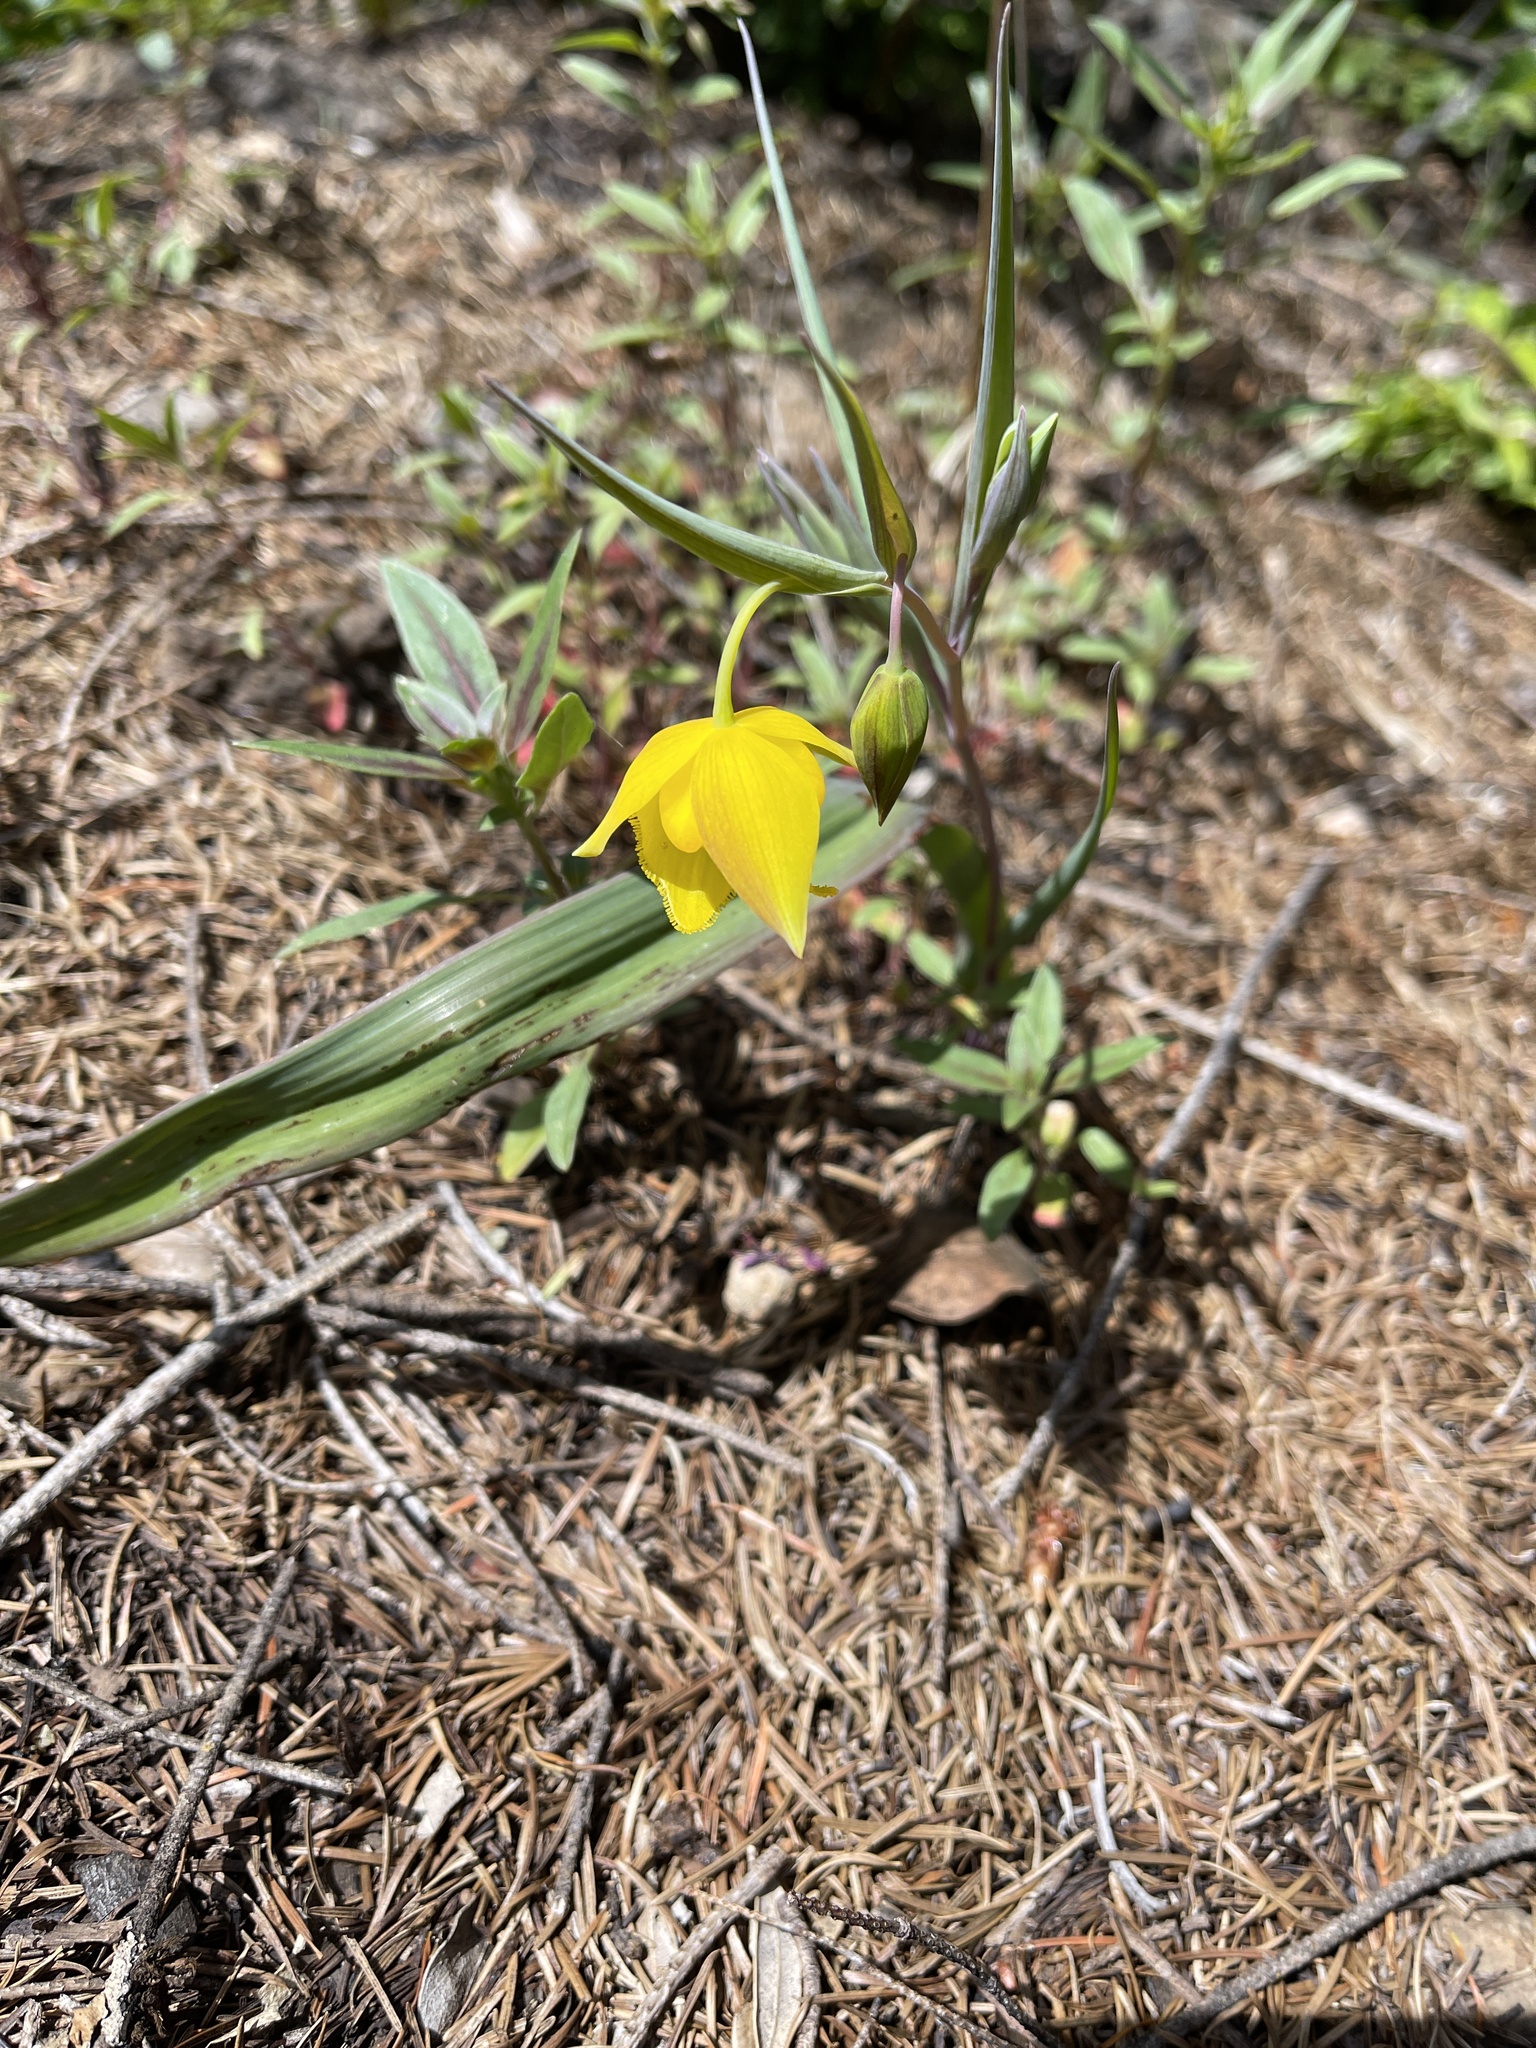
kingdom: Plantae
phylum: Tracheophyta
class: Liliopsida
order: Liliales
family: Liliaceae
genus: Calochortus
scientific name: Calochortus amabilis
